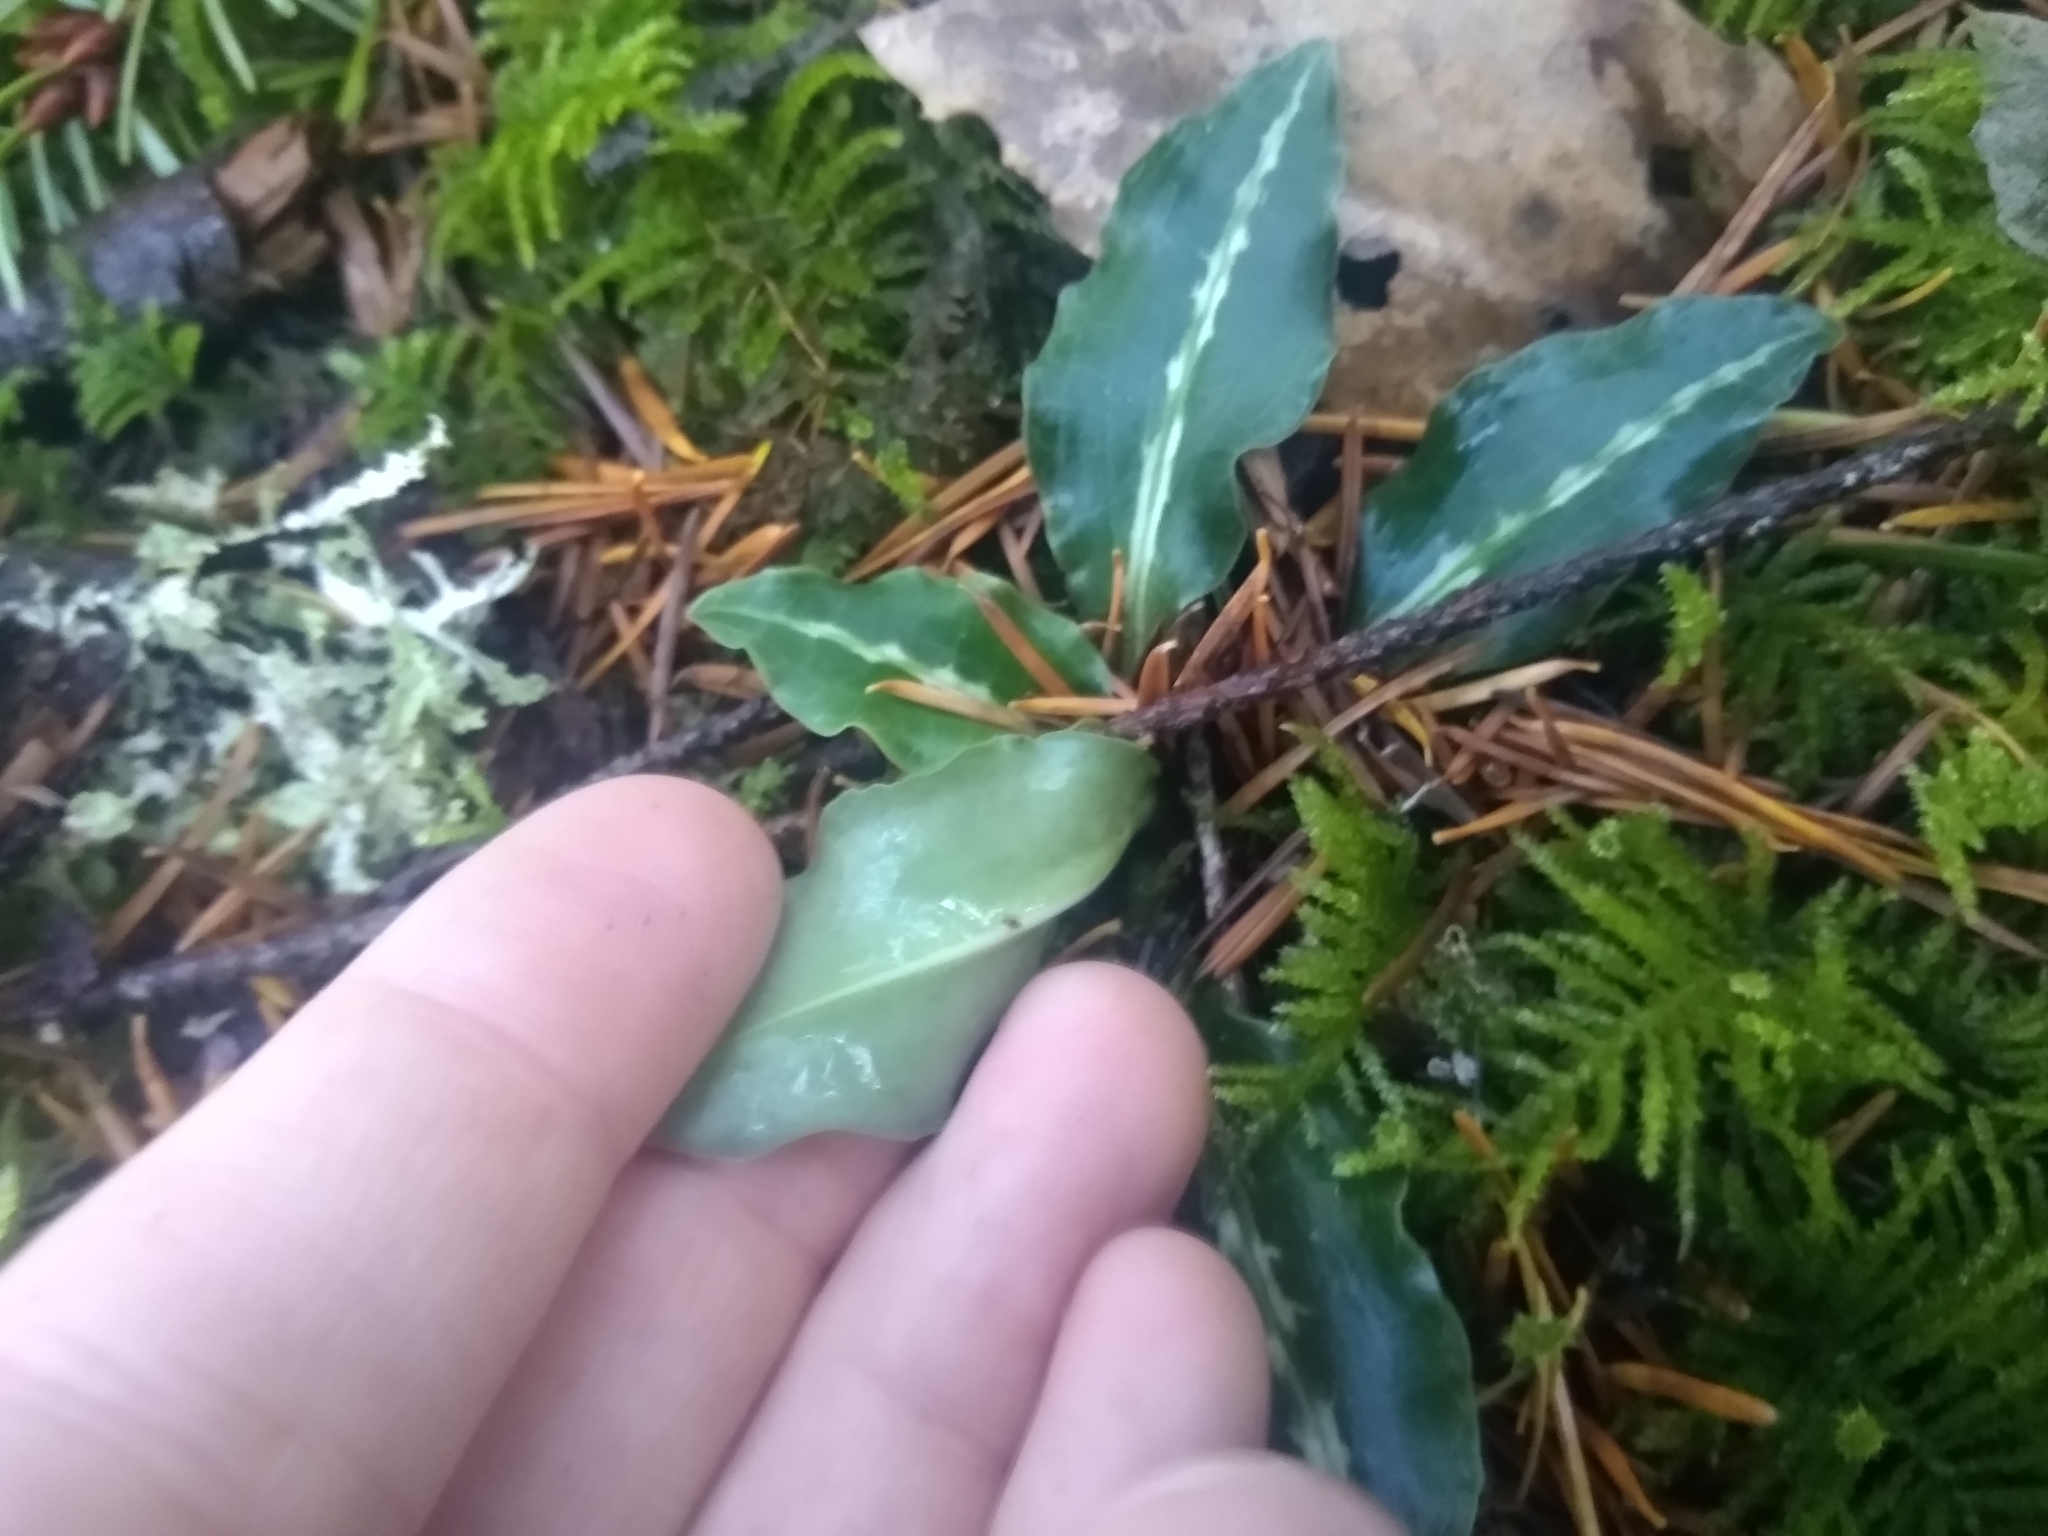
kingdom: Plantae
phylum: Tracheophyta
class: Liliopsida
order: Asparagales
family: Orchidaceae
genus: Goodyera
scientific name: Goodyera oblongifolia
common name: Giant rattlesnake-plantain
